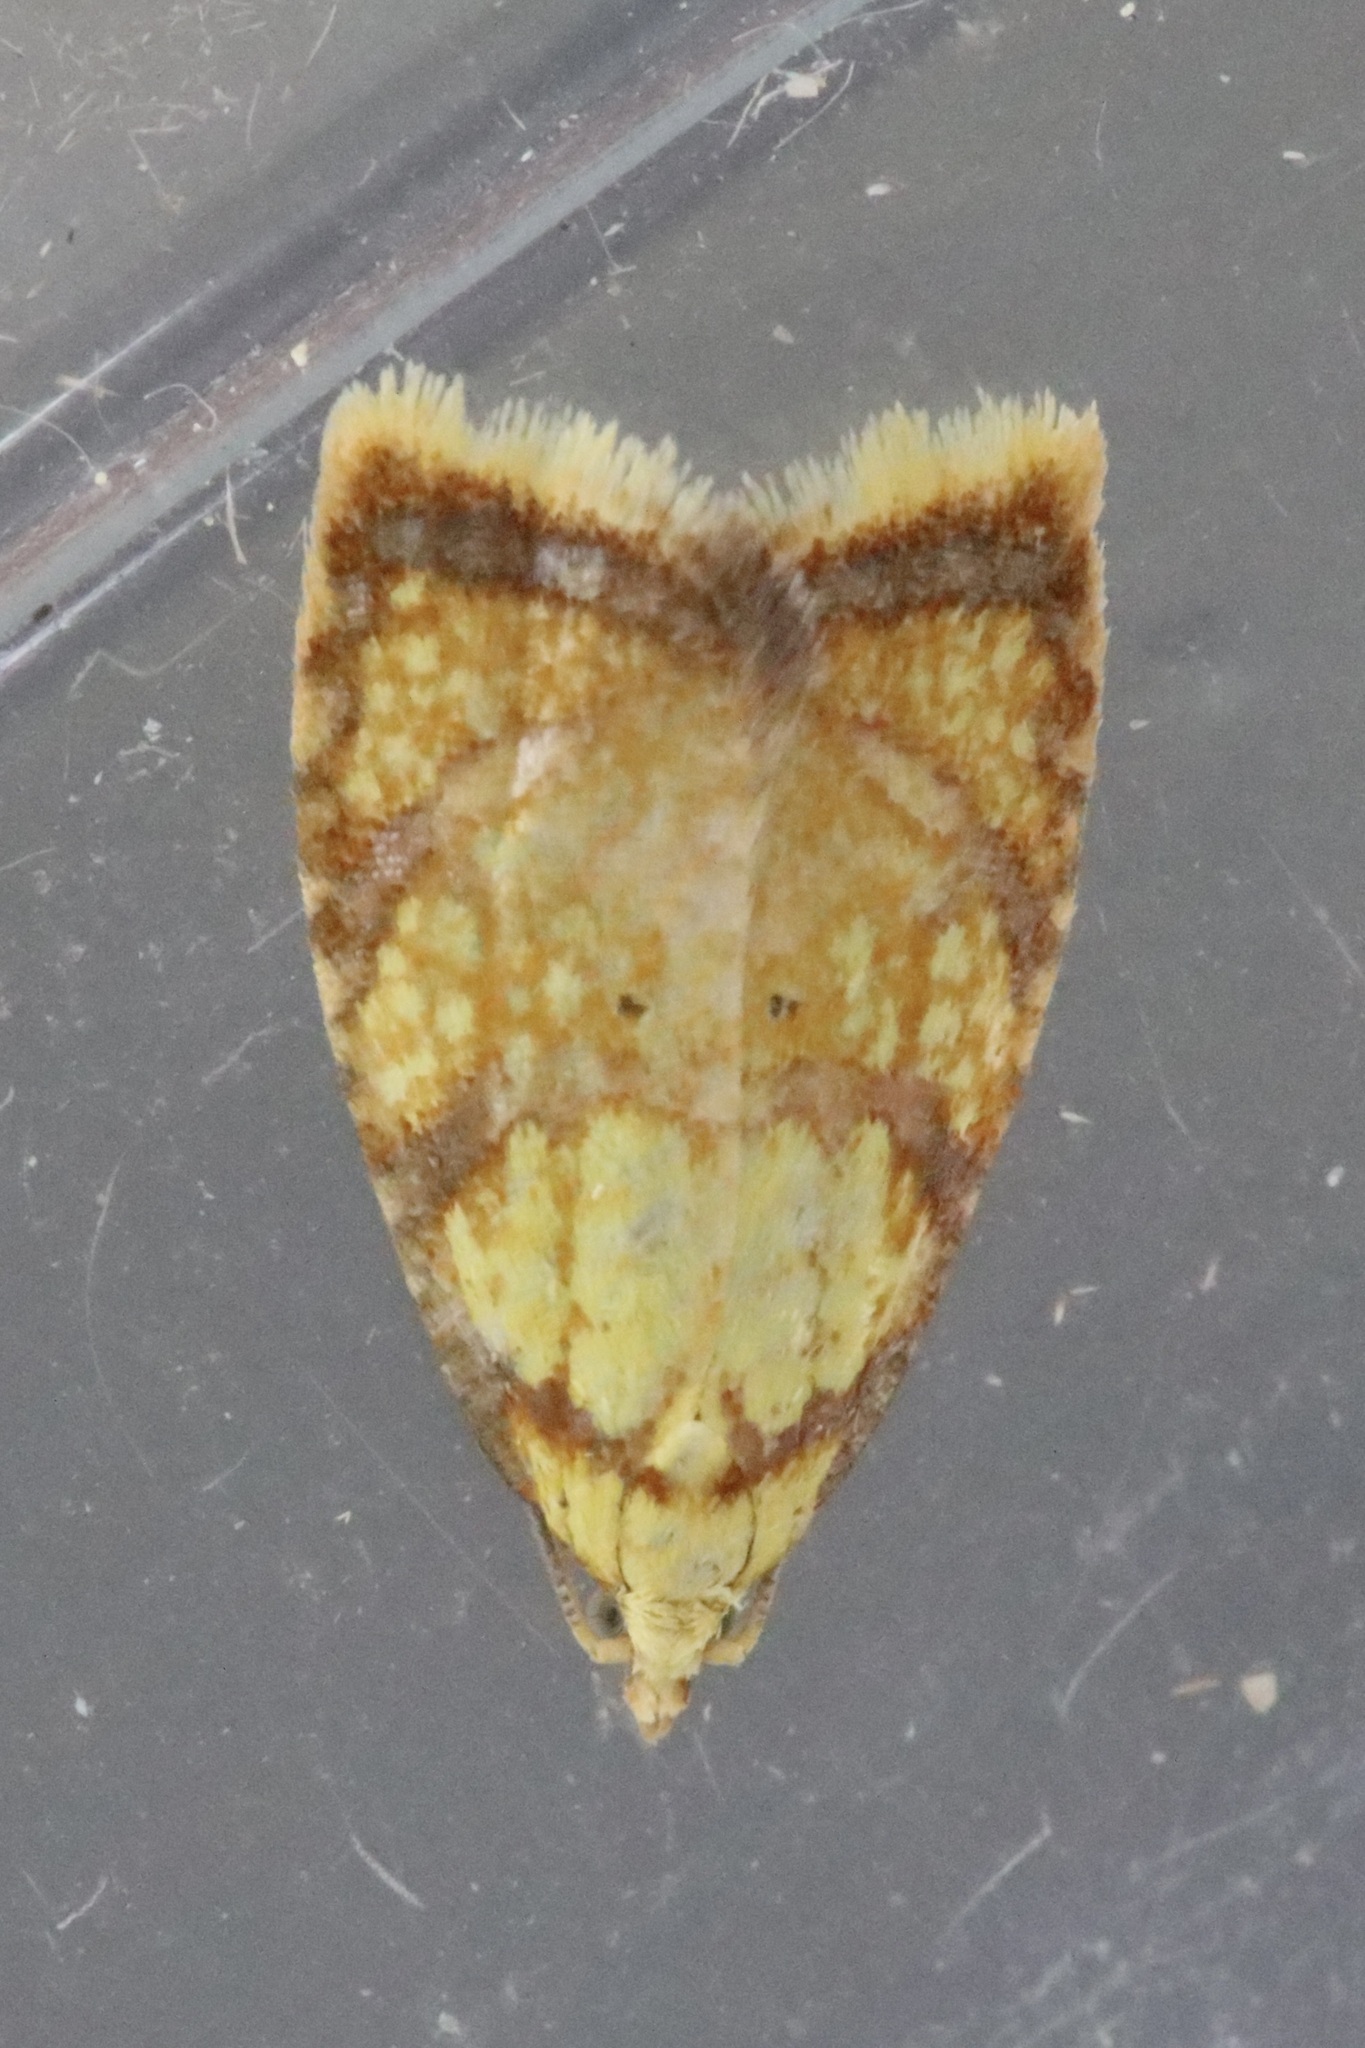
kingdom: Animalia
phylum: Arthropoda
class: Insecta
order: Lepidoptera
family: Tortricidae
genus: Acleris
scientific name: Acleris bergmanniana
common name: Yellow rose button
